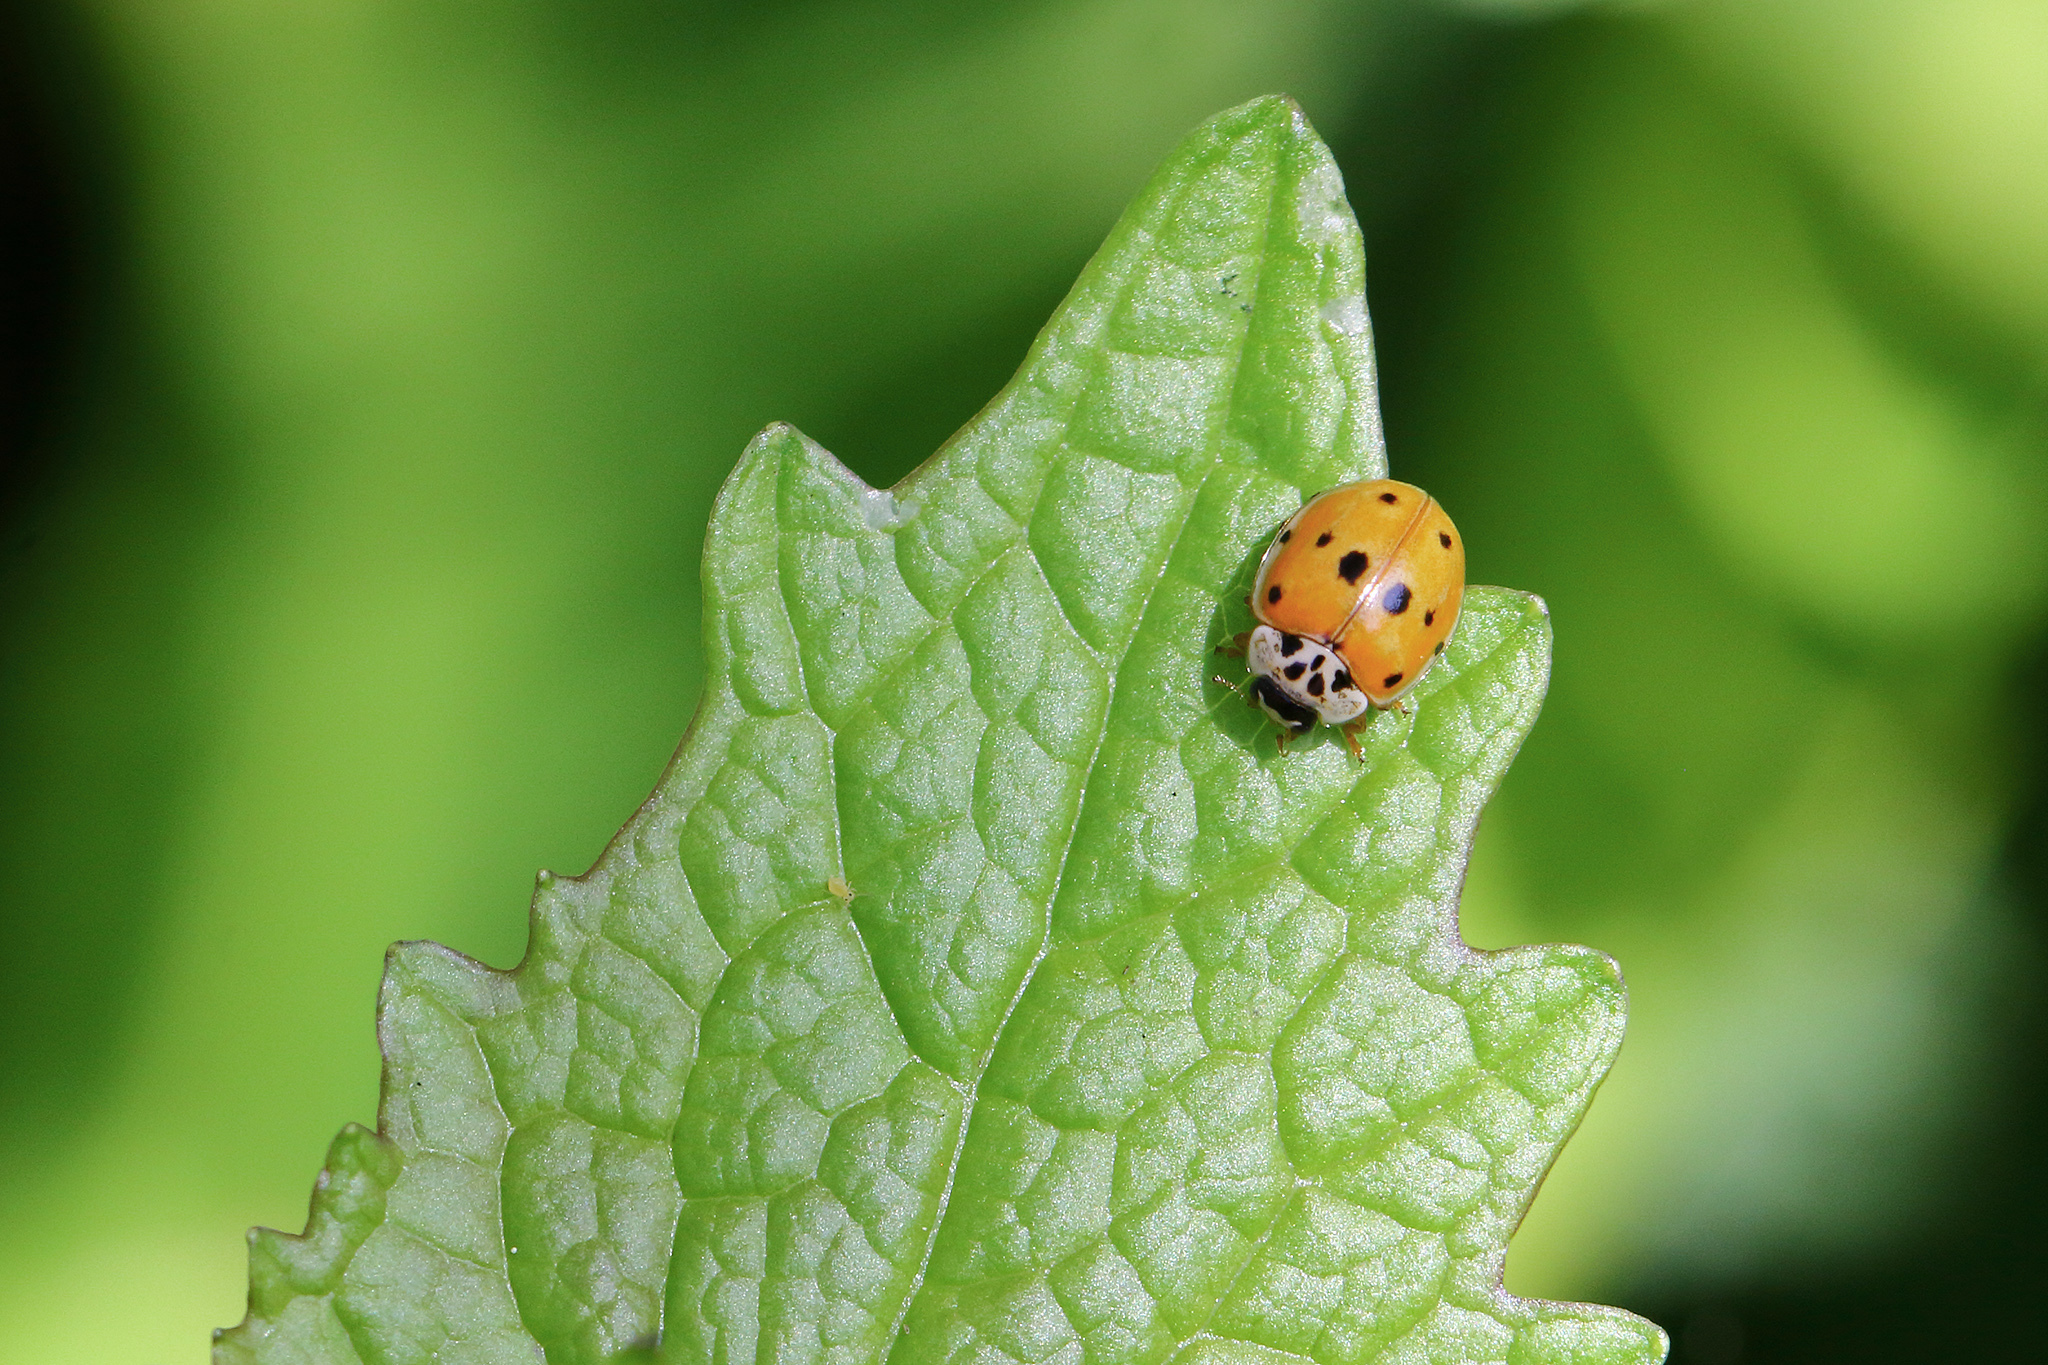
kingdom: Animalia
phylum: Arthropoda
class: Insecta
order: Coleoptera
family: Coccinellidae
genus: Adalia
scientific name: Adalia decempunctata
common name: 10-spot ladybird
